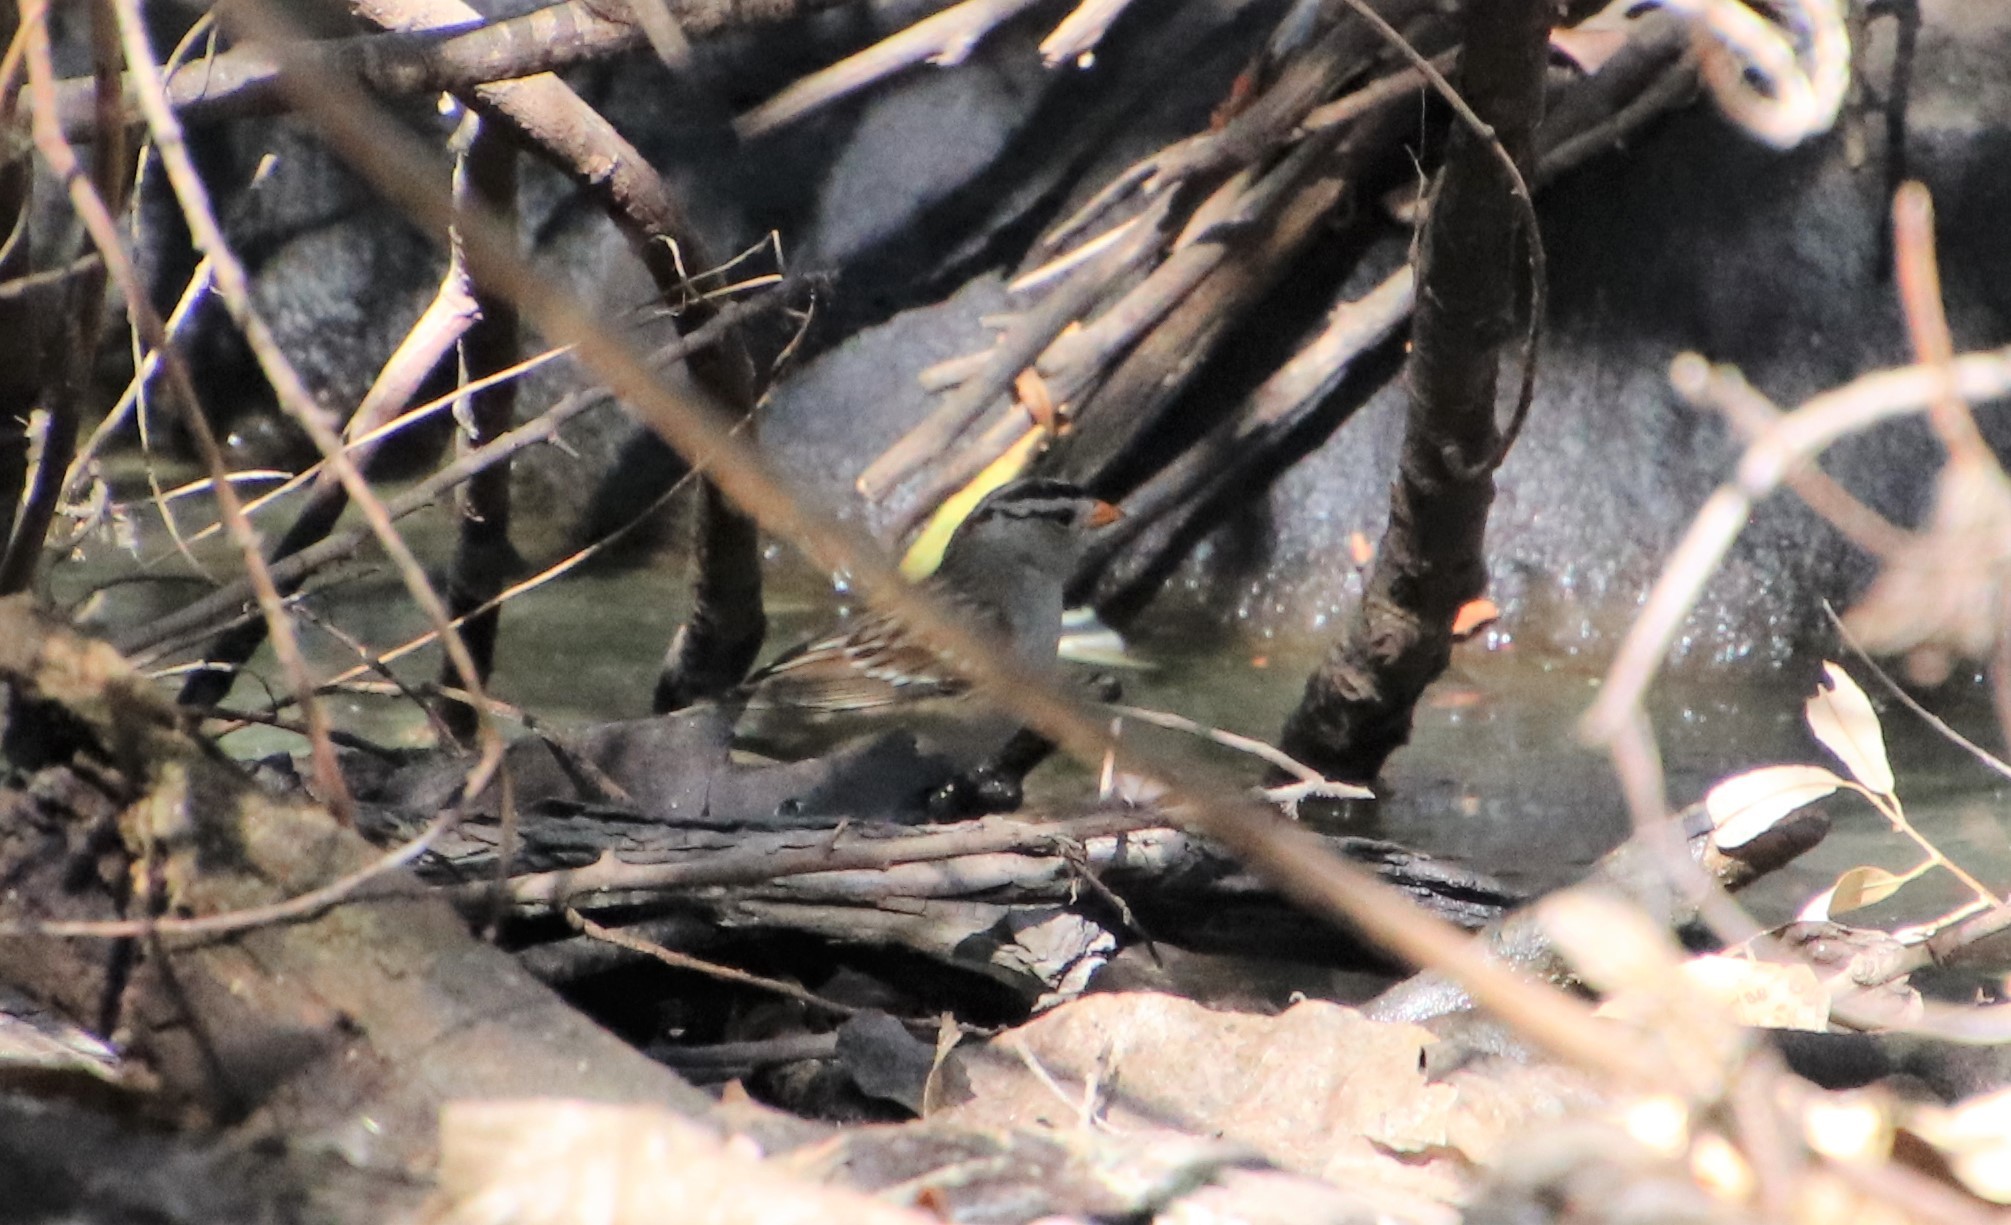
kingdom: Animalia
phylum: Chordata
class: Aves
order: Passeriformes
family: Passerellidae
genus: Zonotrichia
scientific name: Zonotrichia leucophrys
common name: White-crowned sparrow
